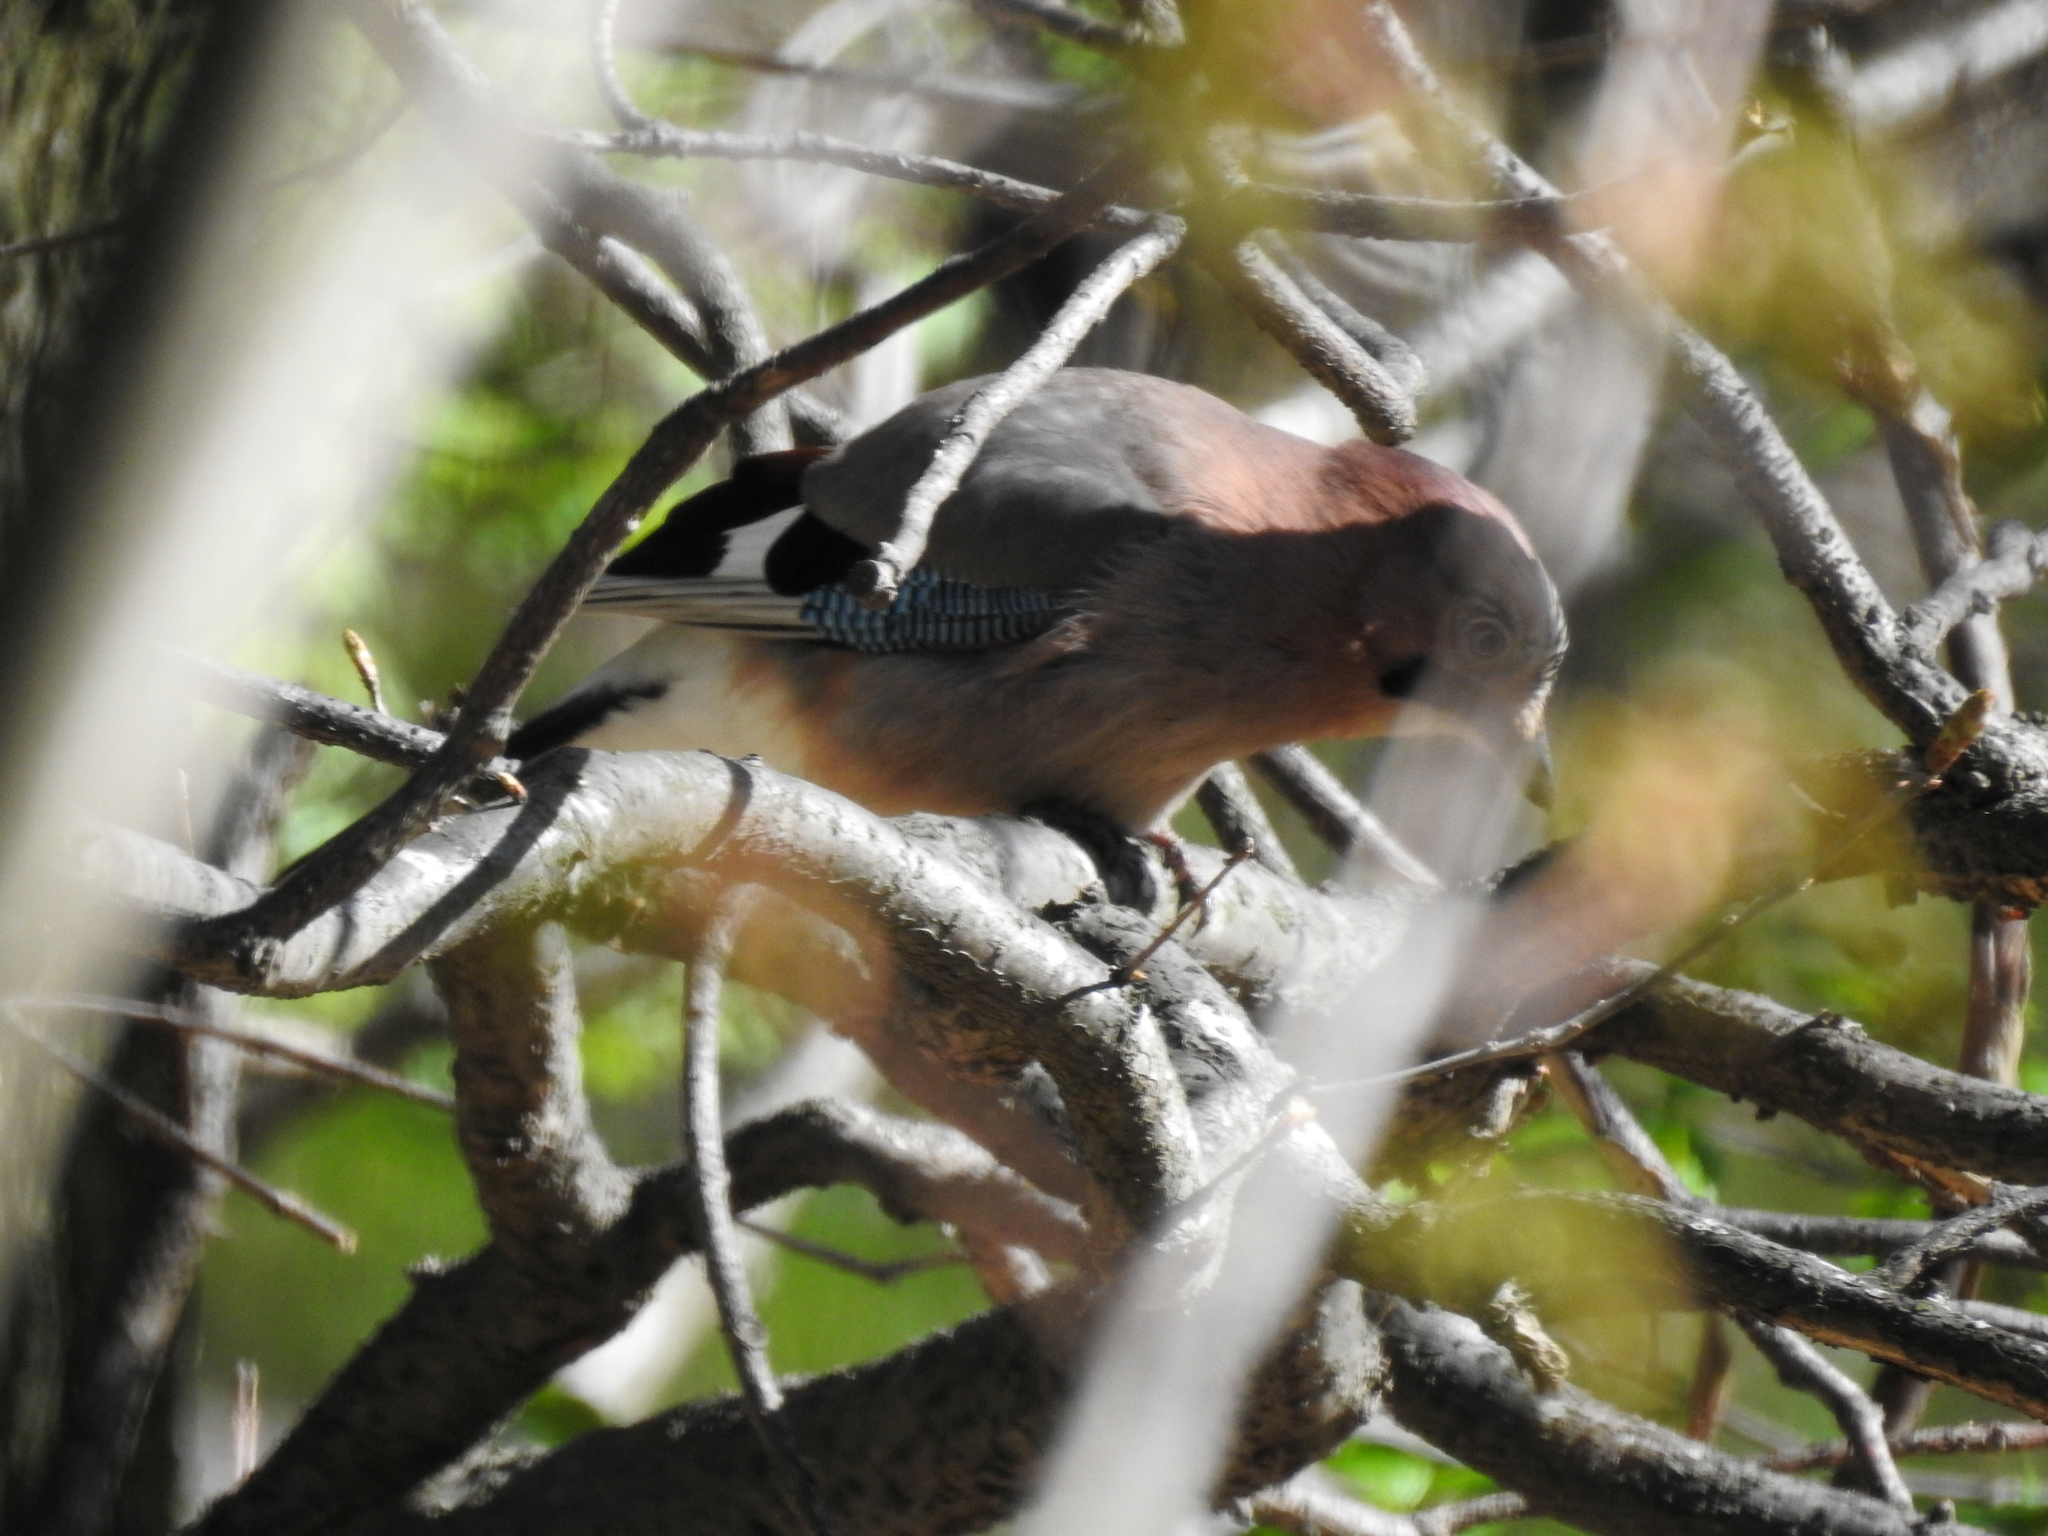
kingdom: Animalia
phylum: Chordata
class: Aves
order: Passeriformes
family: Corvidae
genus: Garrulus
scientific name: Garrulus glandarius
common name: Eurasian jay
